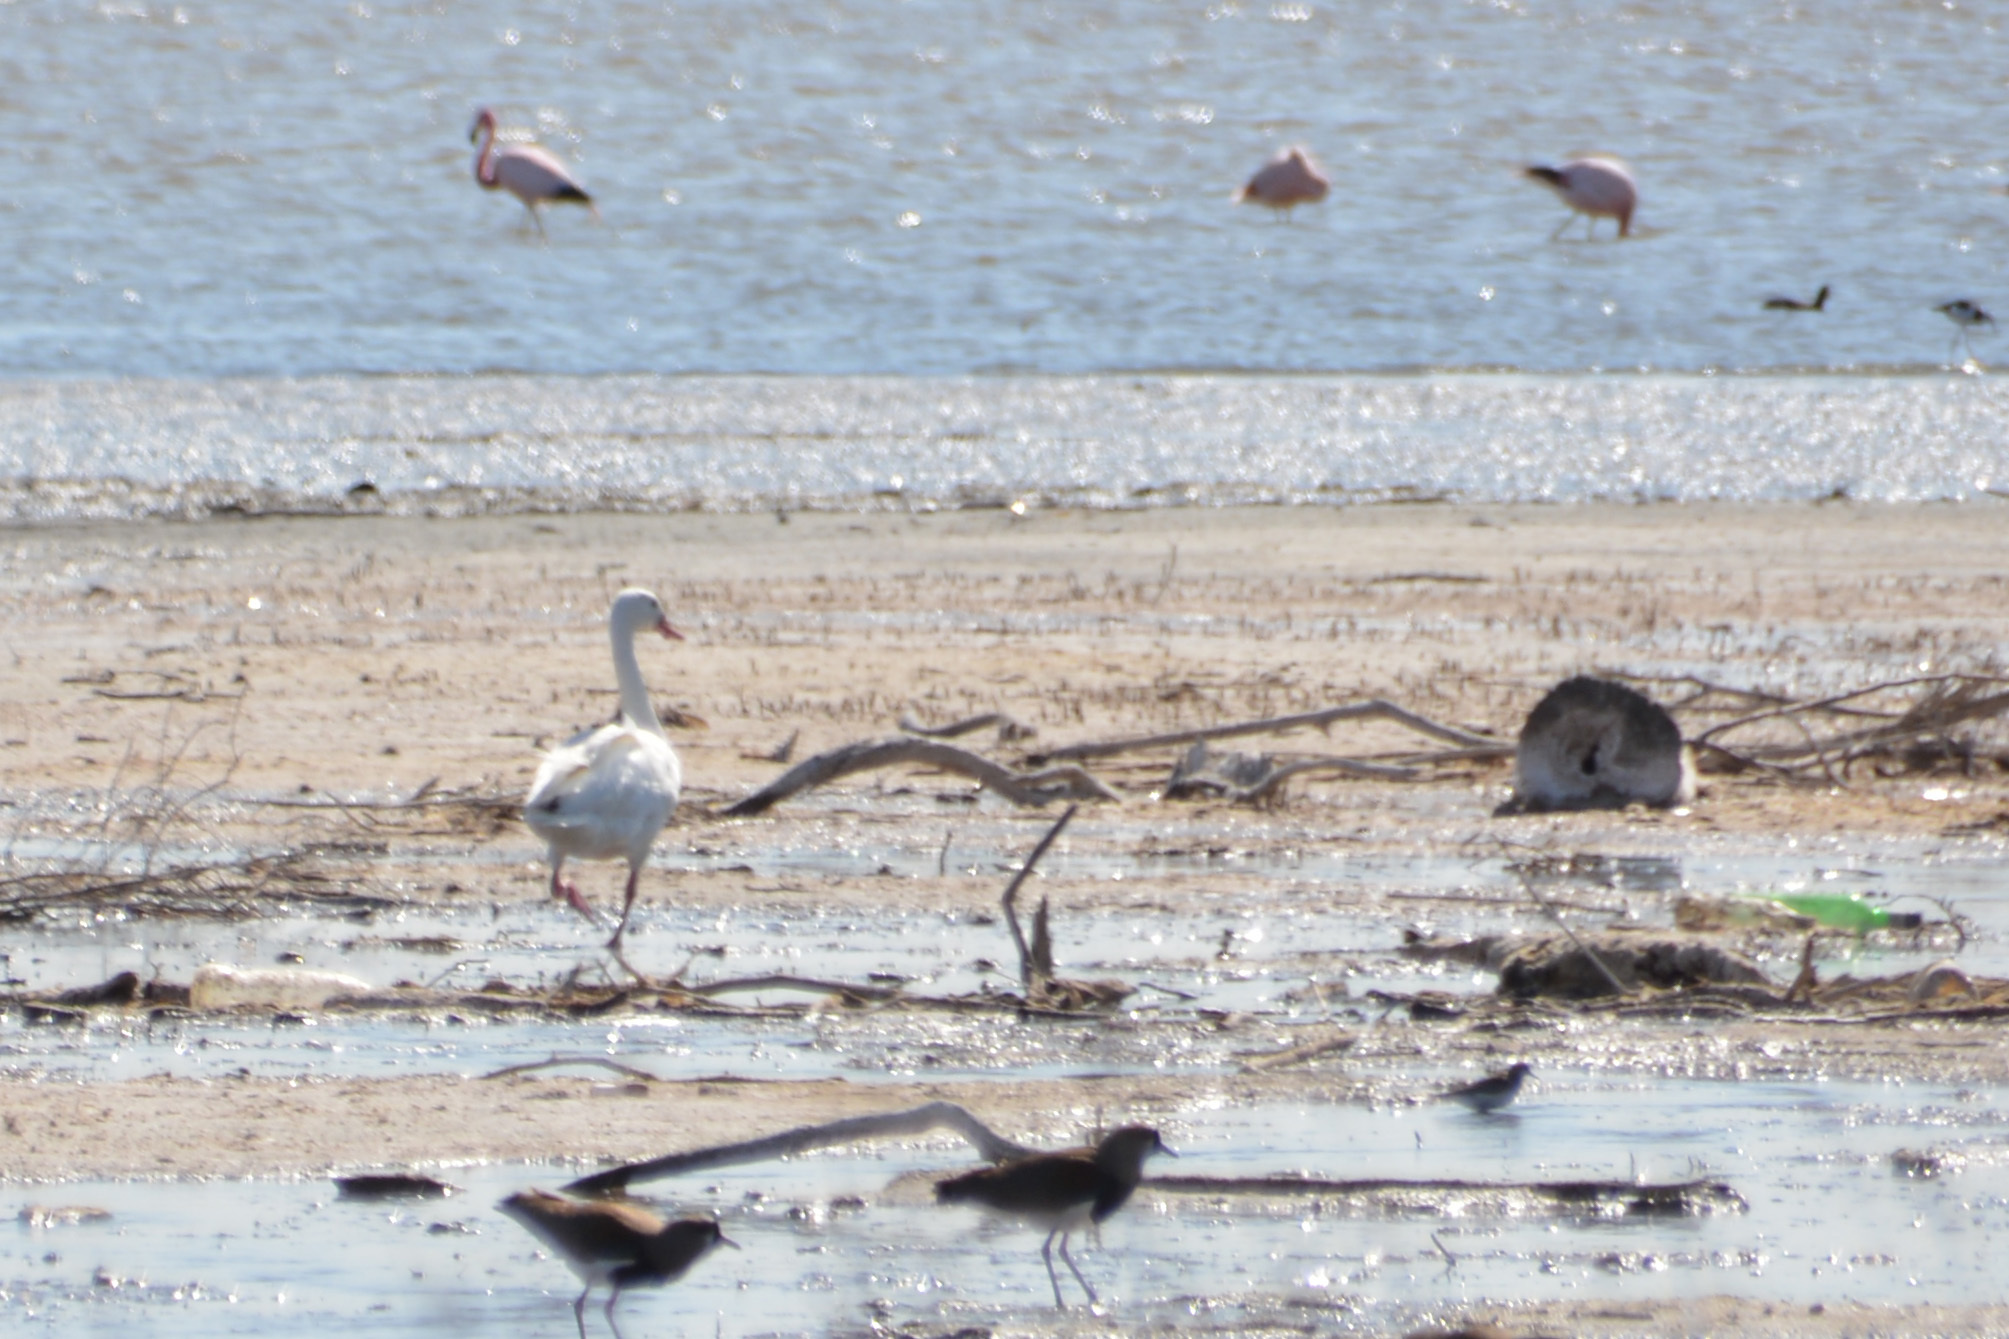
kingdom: Animalia
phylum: Chordata
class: Aves
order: Anseriformes
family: Anatidae
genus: Coscoroba
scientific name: Coscoroba coscoroba
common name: Coscoroba swan
